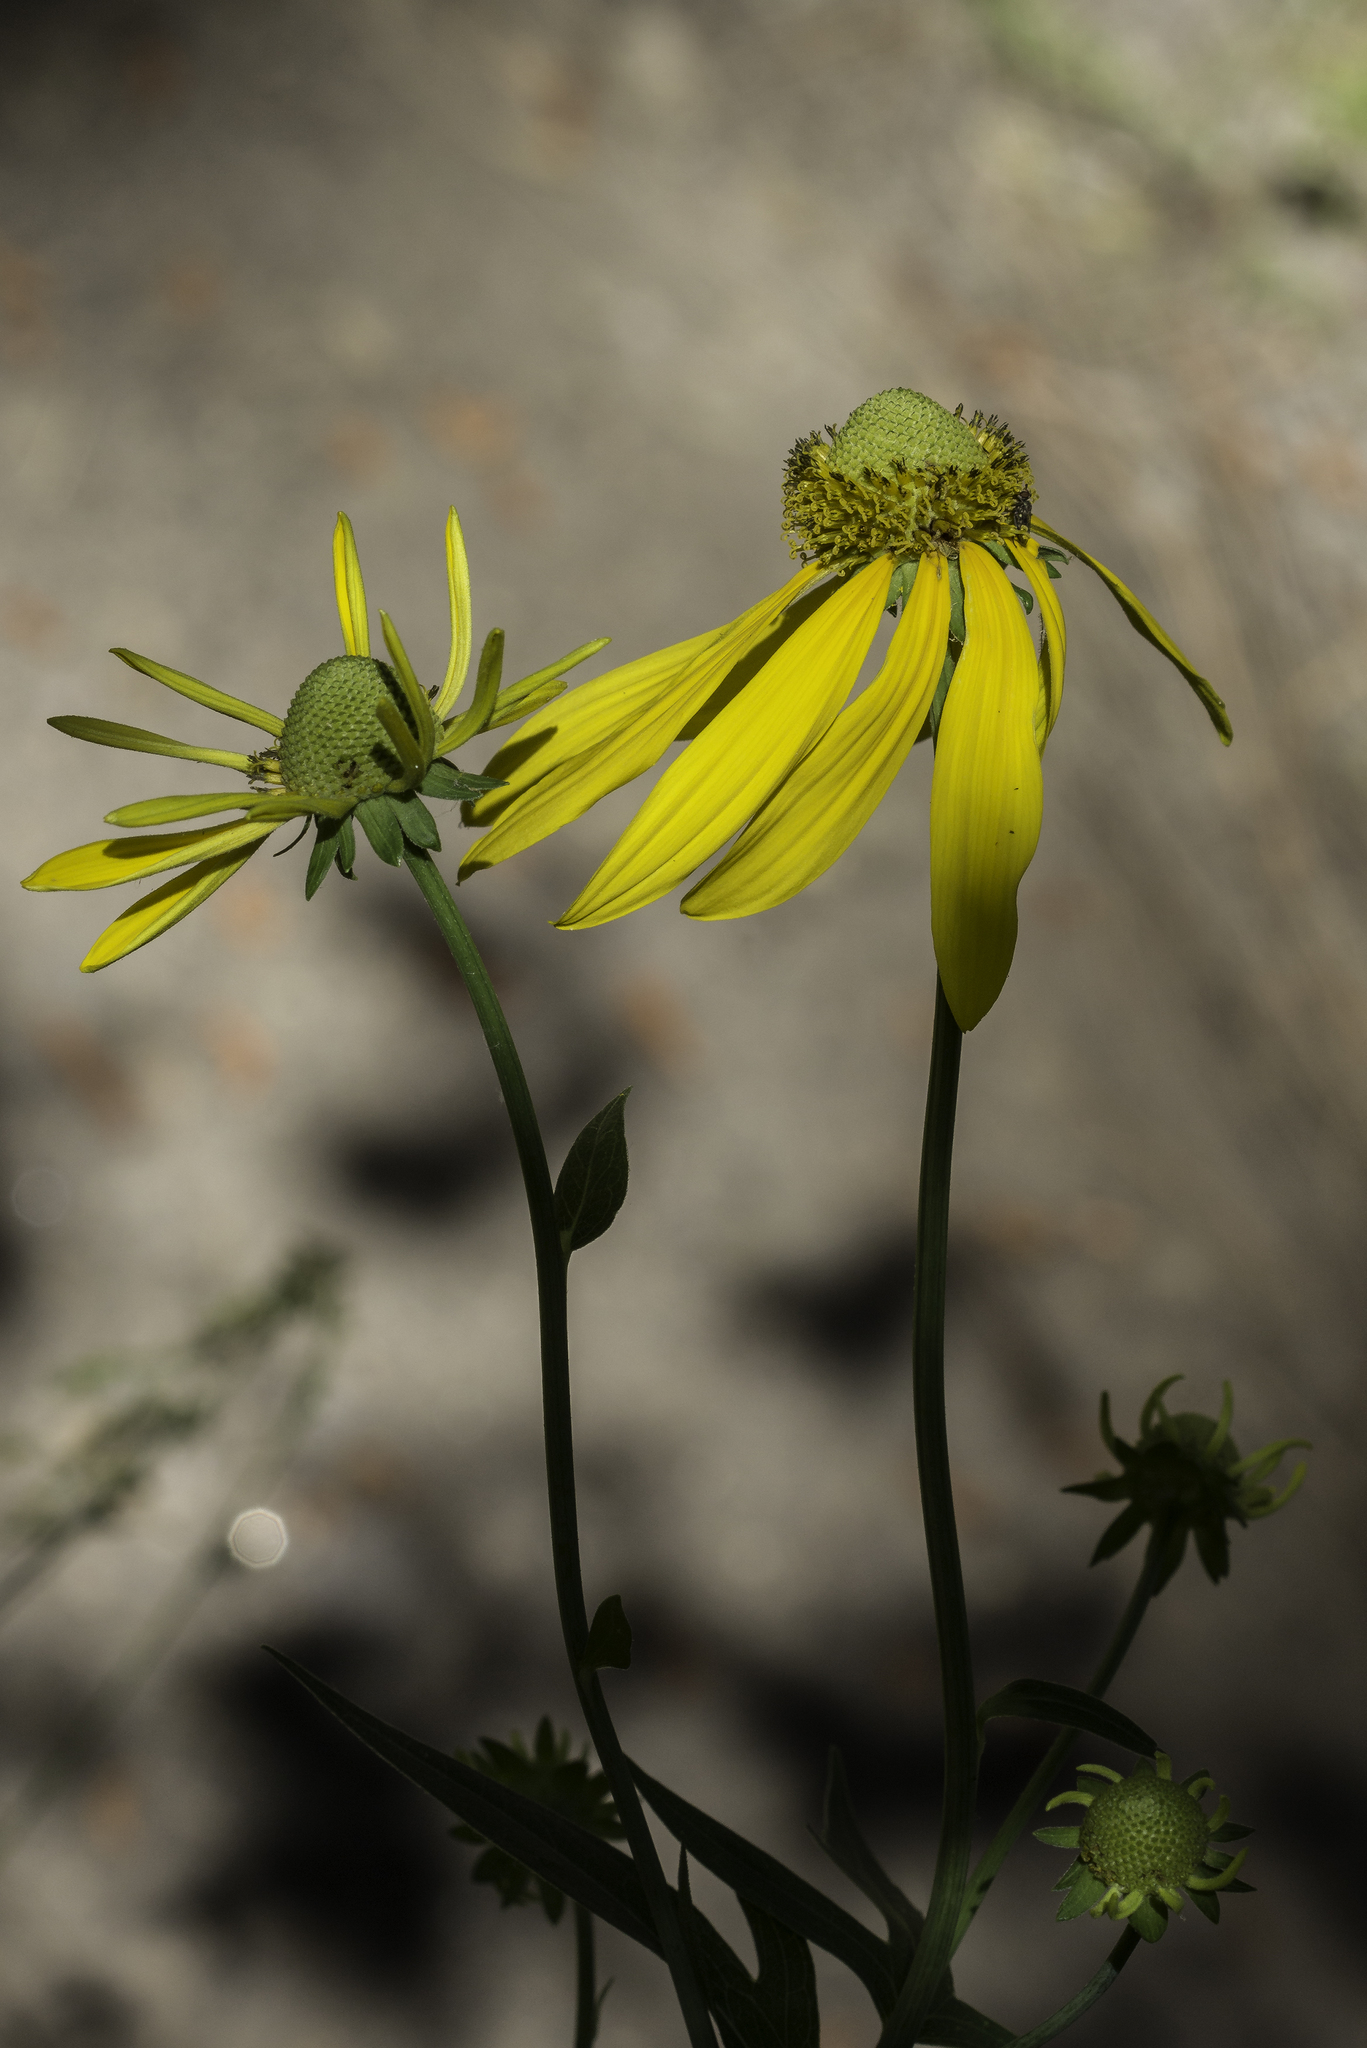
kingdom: Plantae
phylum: Tracheophyta
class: Magnoliopsida
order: Asterales
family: Asteraceae
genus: Rudbeckia
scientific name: Rudbeckia laciniata
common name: Coneflower
